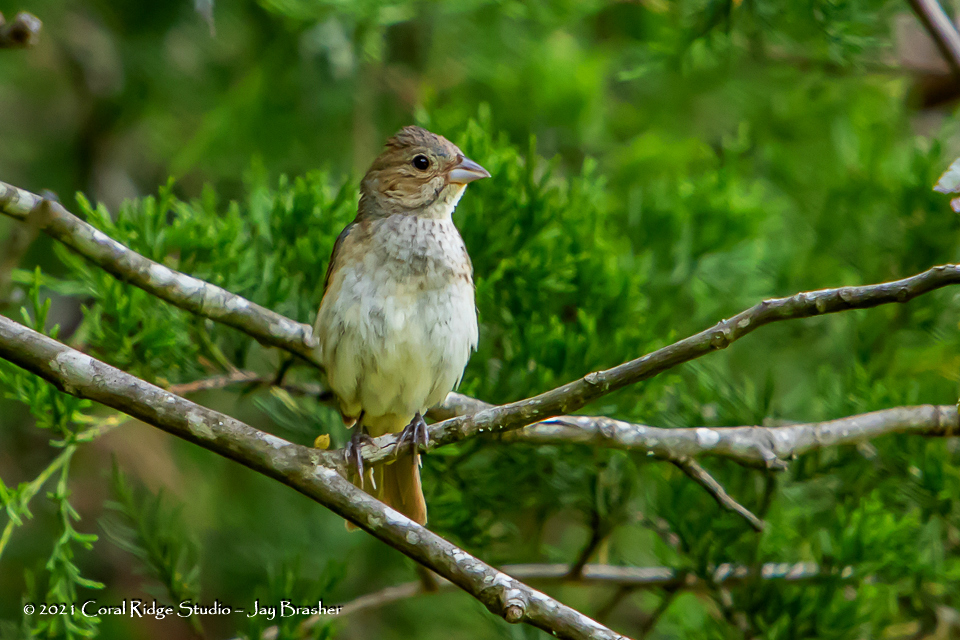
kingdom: Animalia
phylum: Chordata
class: Aves
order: Passeriformes
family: Cardinalidae
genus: Passerina
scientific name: Passerina cyanea
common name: Indigo bunting
